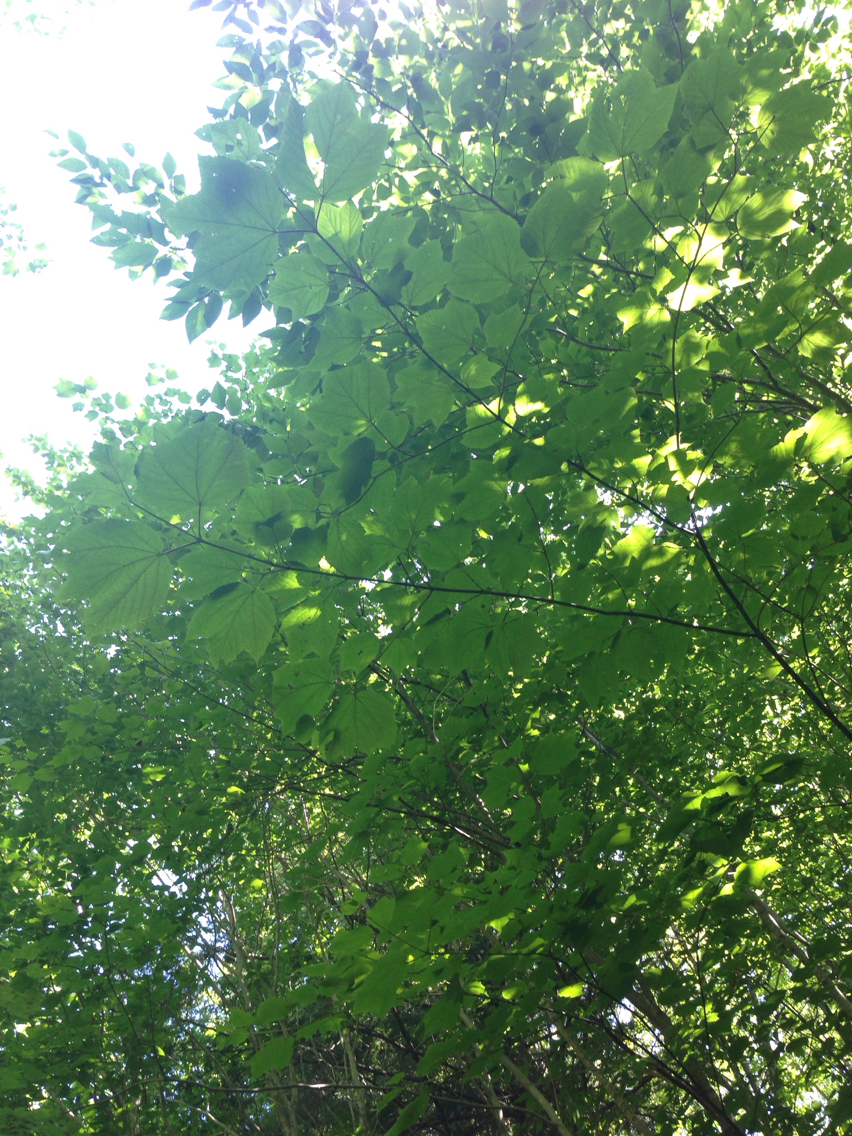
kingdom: Plantae
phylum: Tracheophyta
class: Magnoliopsida
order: Sapindales
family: Sapindaceae
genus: Acer
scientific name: Acer pensylvanicum
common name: Moosewood
